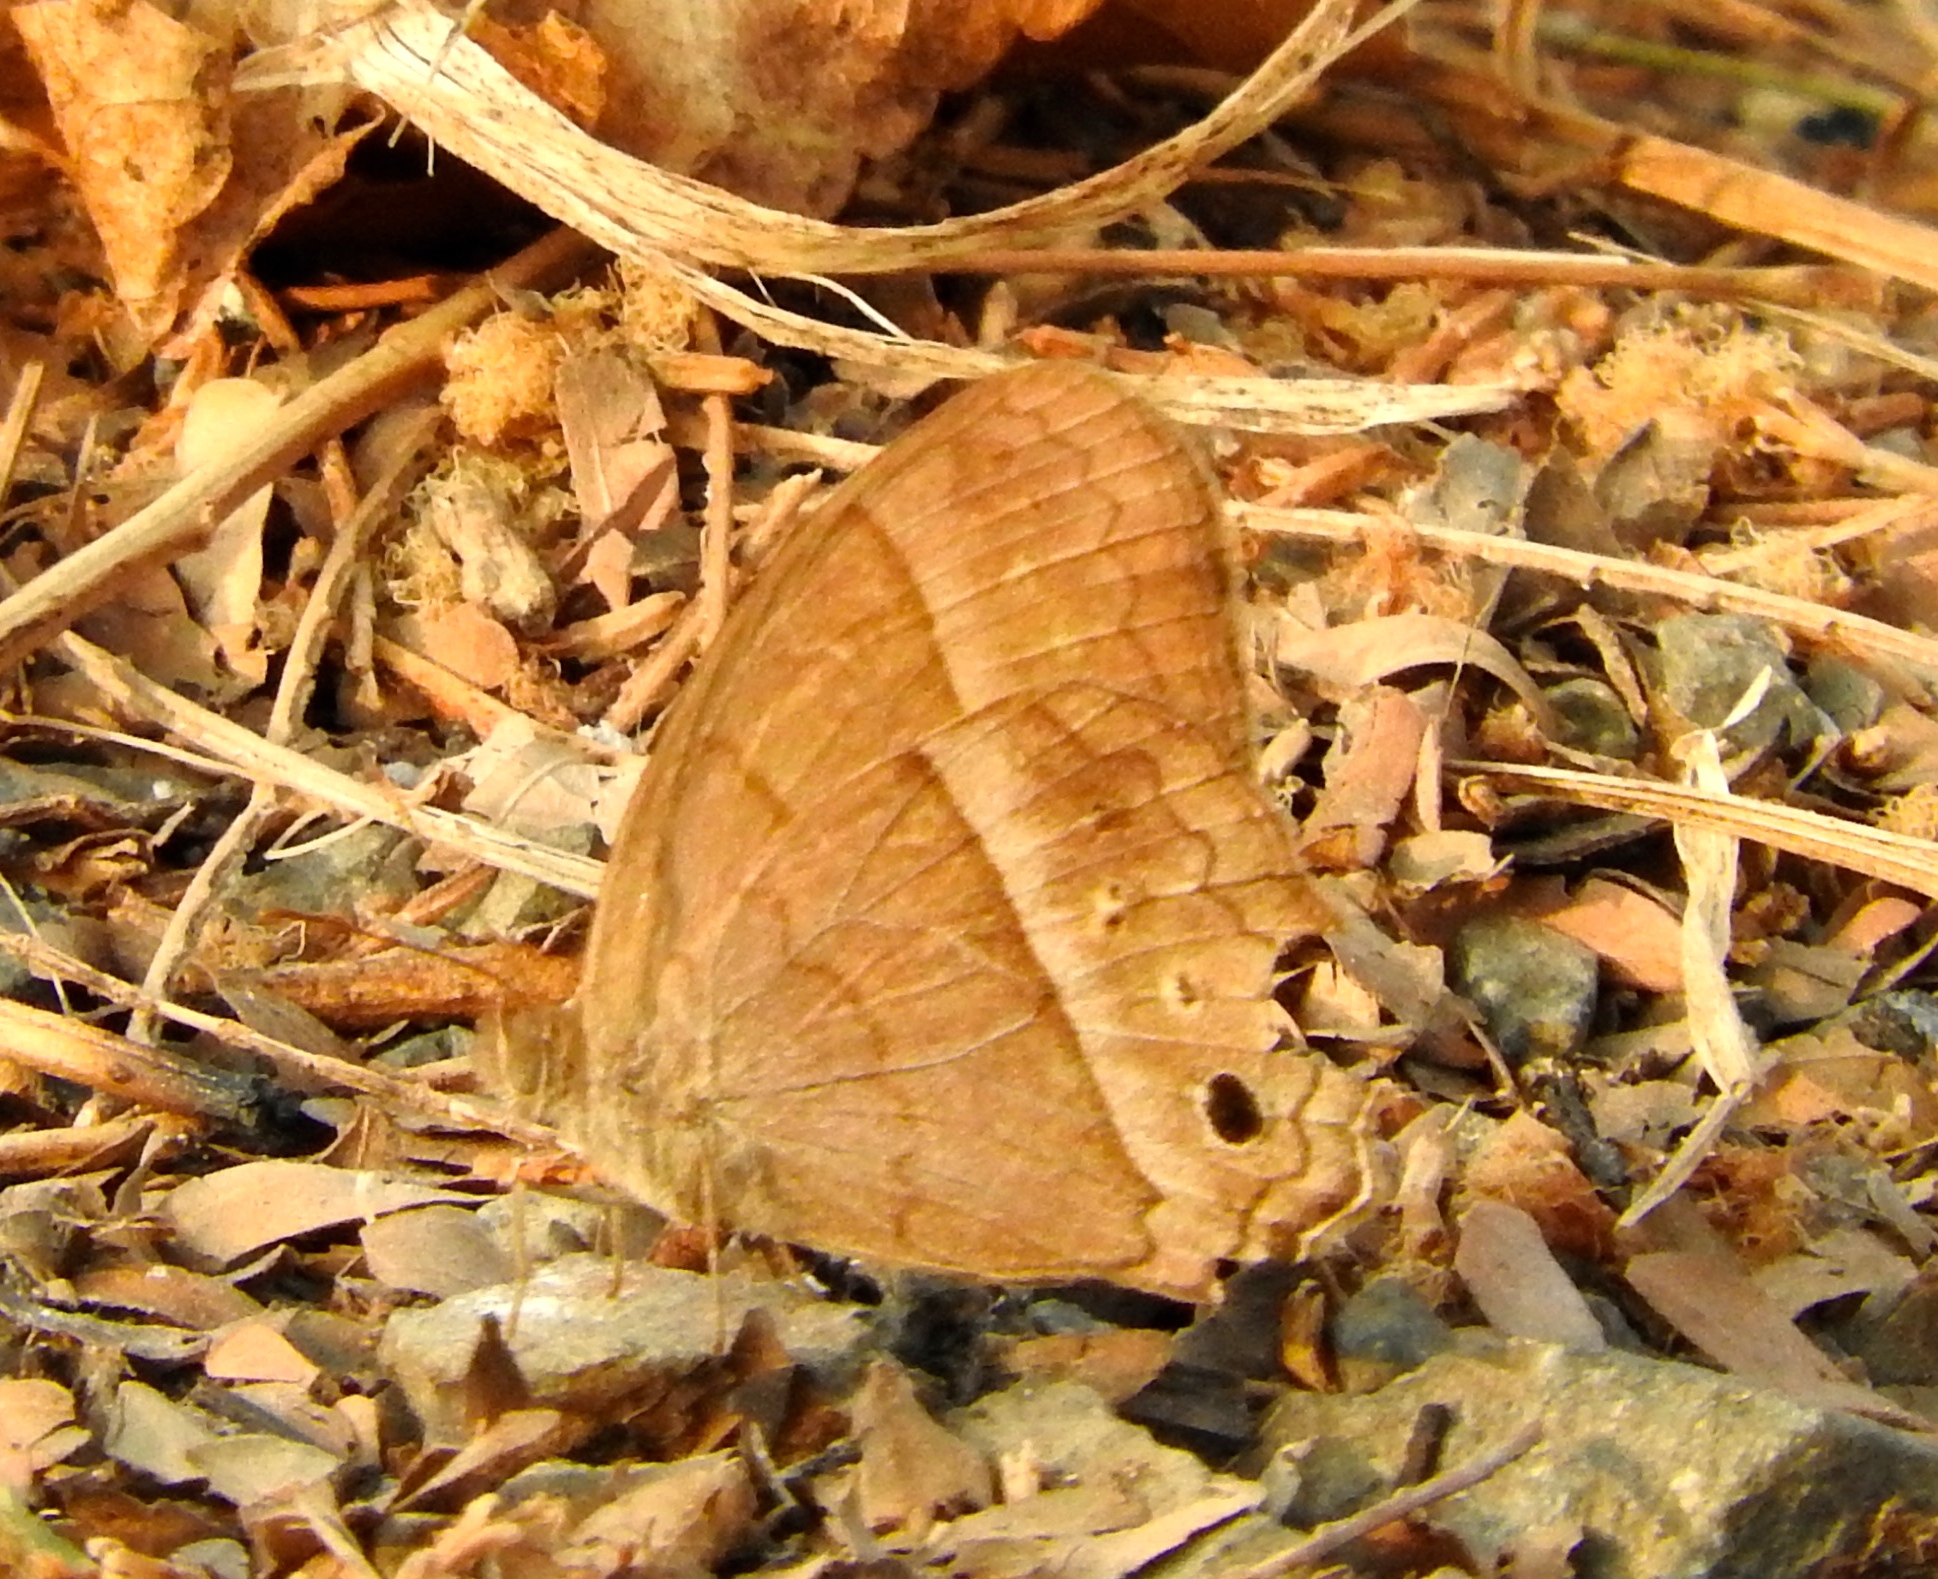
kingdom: Animalia
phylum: Arthropoda
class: Insecta
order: Lepidoptera
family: Nymphalidae
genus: Vareuptychia
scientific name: Vareuptychia similis
